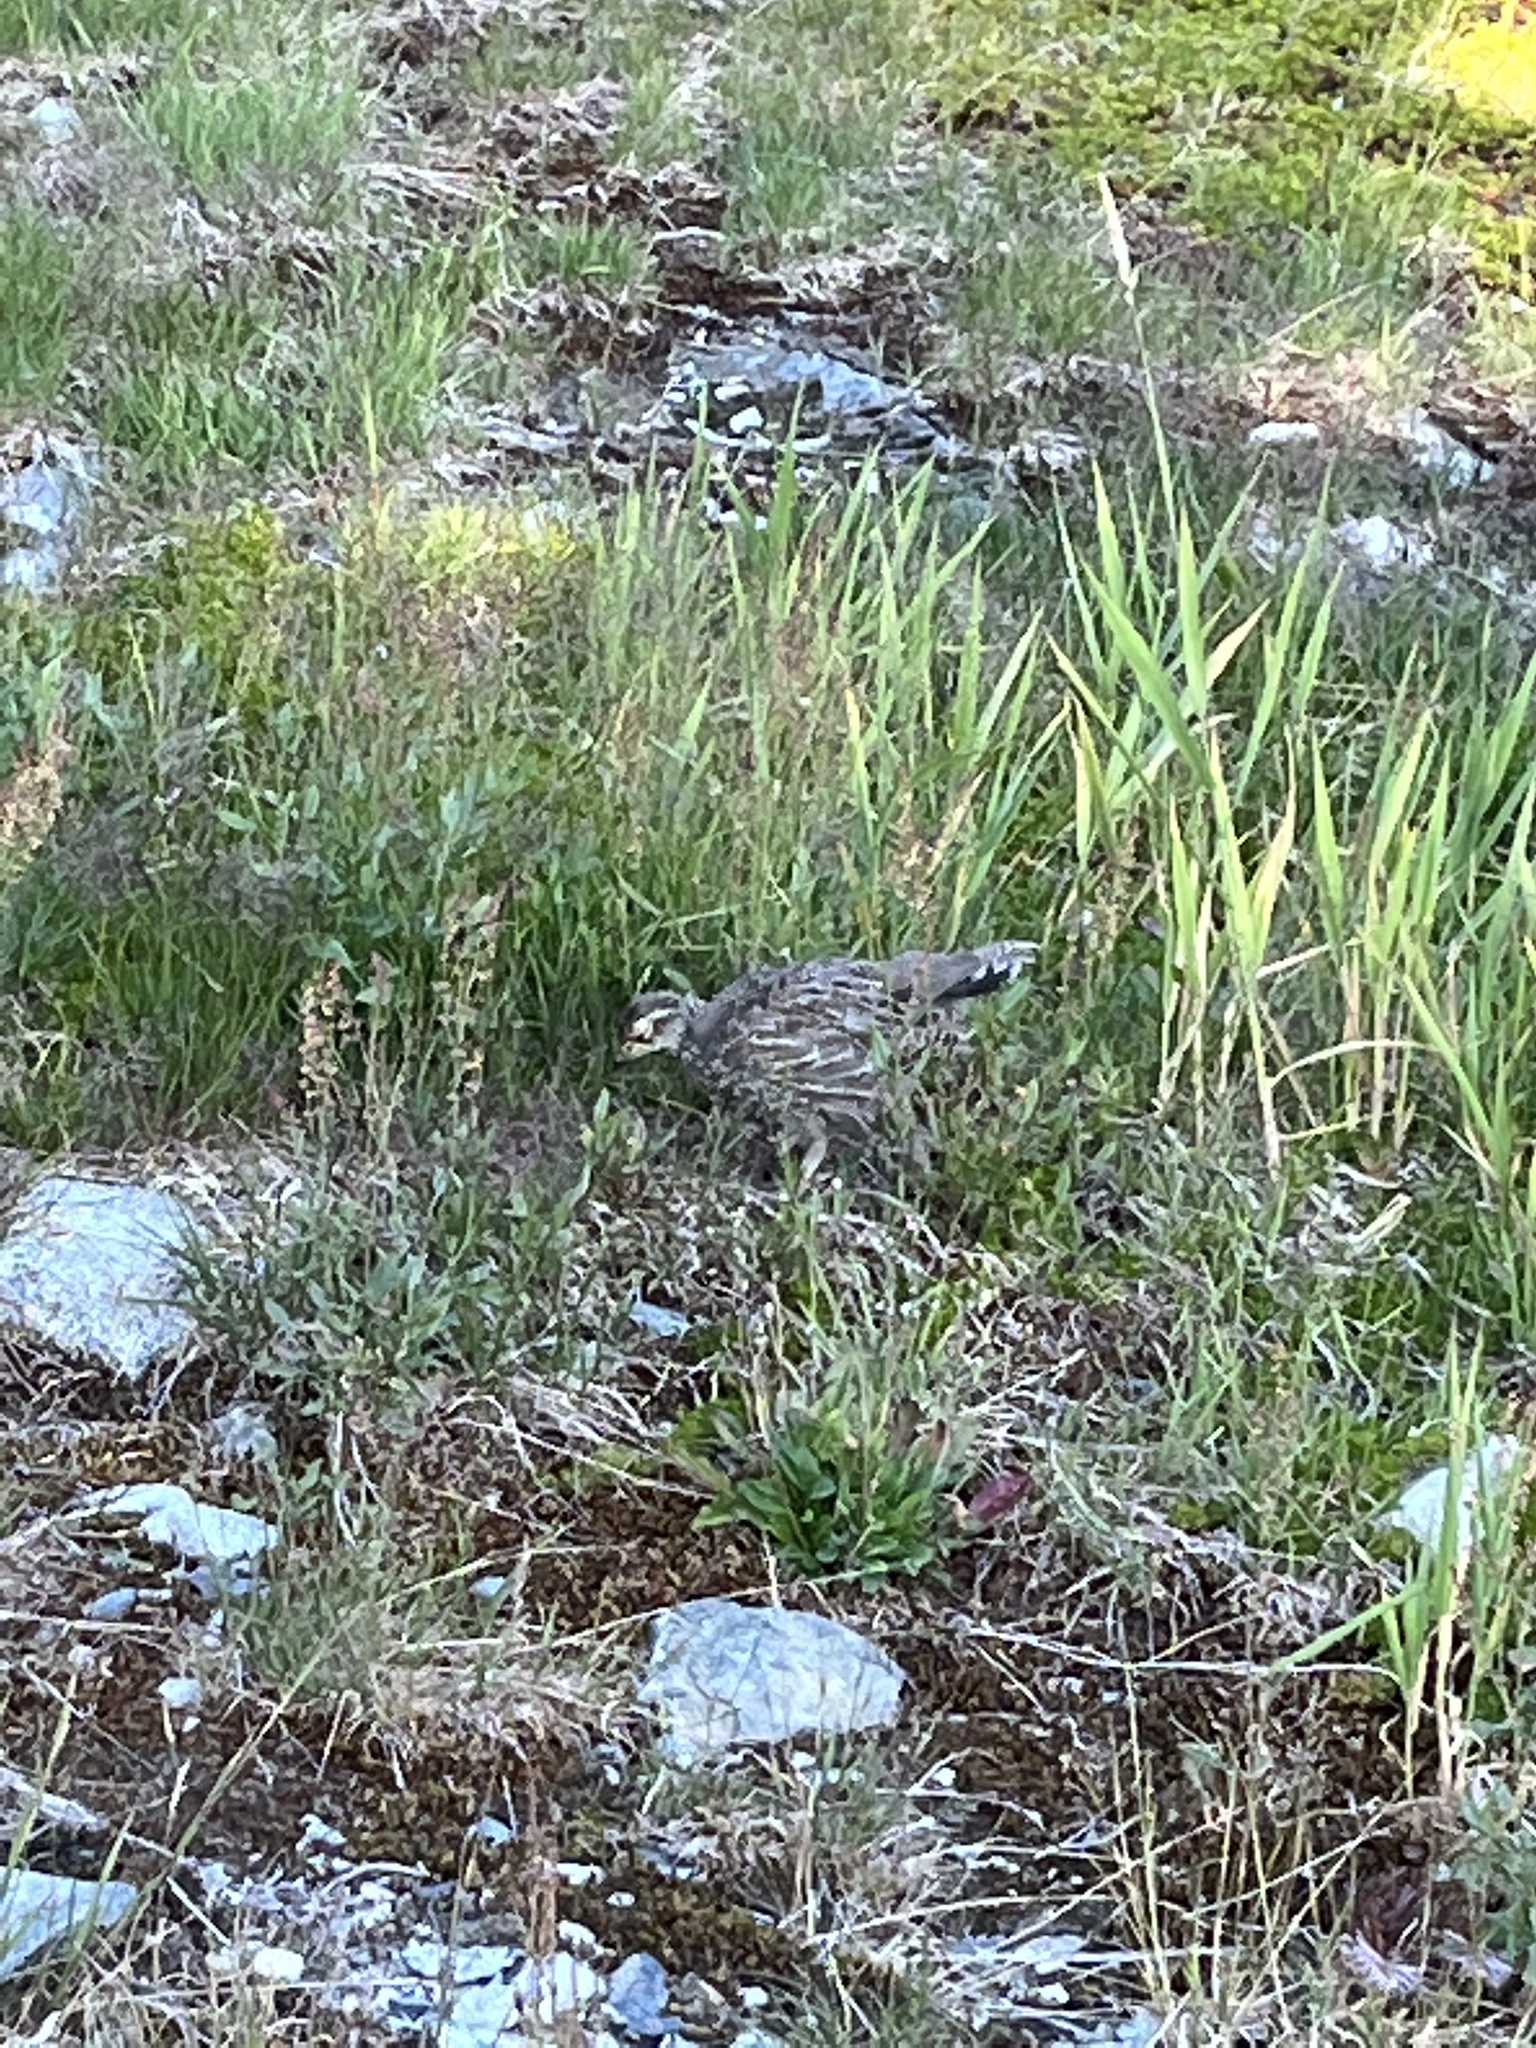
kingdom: Animalia
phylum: Chordata
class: Aves
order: Galliformes
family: Phasianidae
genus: Dendragapus
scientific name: Dendragapus fuliginosus
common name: Sooty grouse
